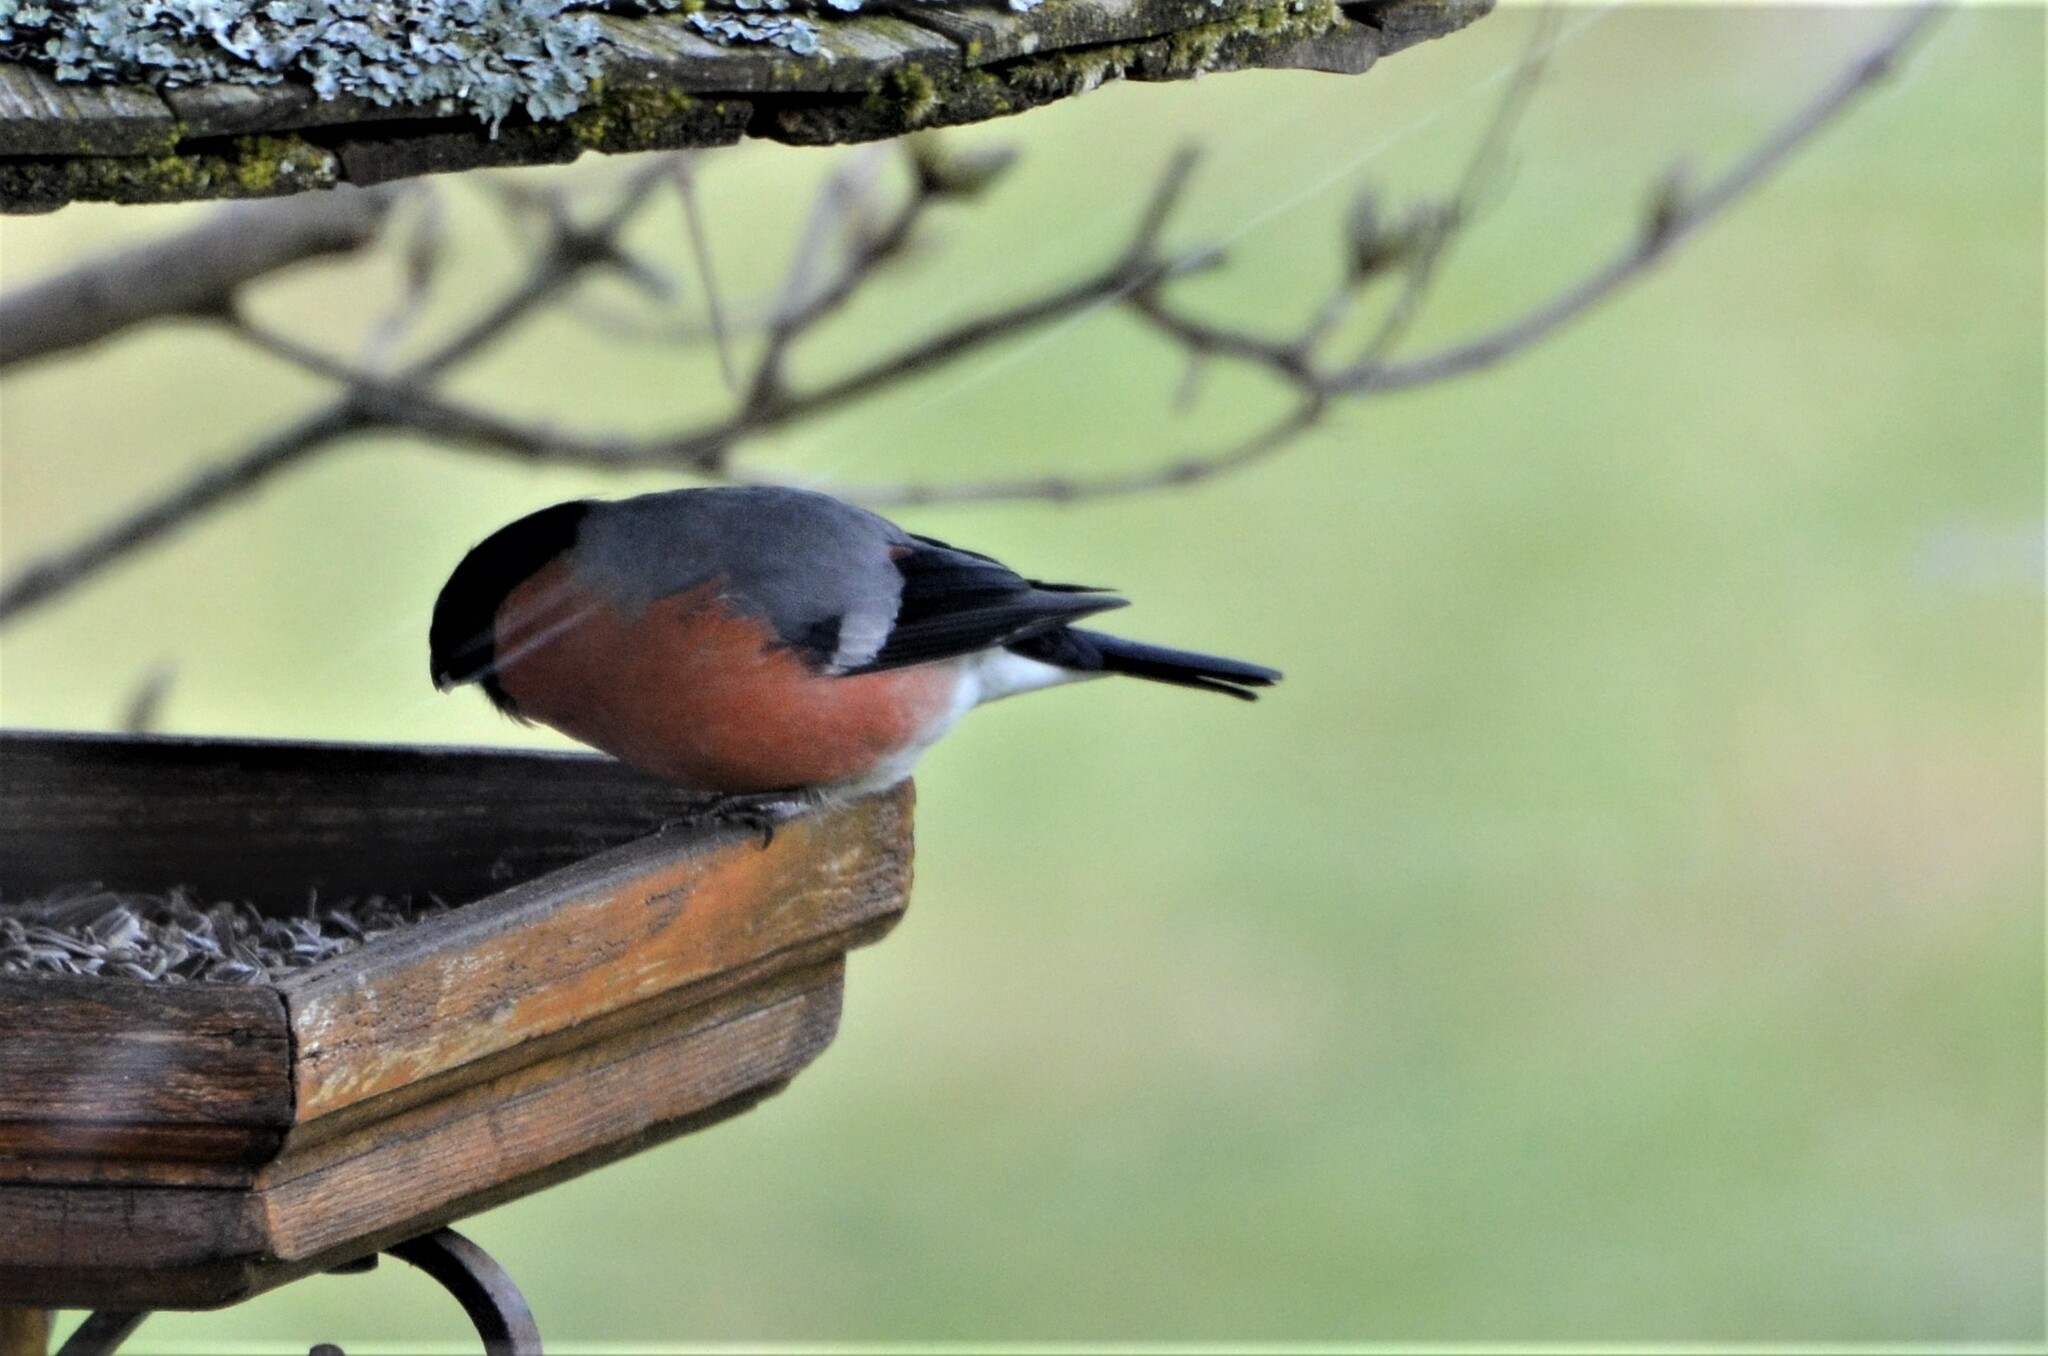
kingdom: Animalia
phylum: Chordata
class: Aves
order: Passeriformes
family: Fringillidae
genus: Pyrrhula
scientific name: Pyrrhula pyrrhula
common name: Eurasian bullfinch
